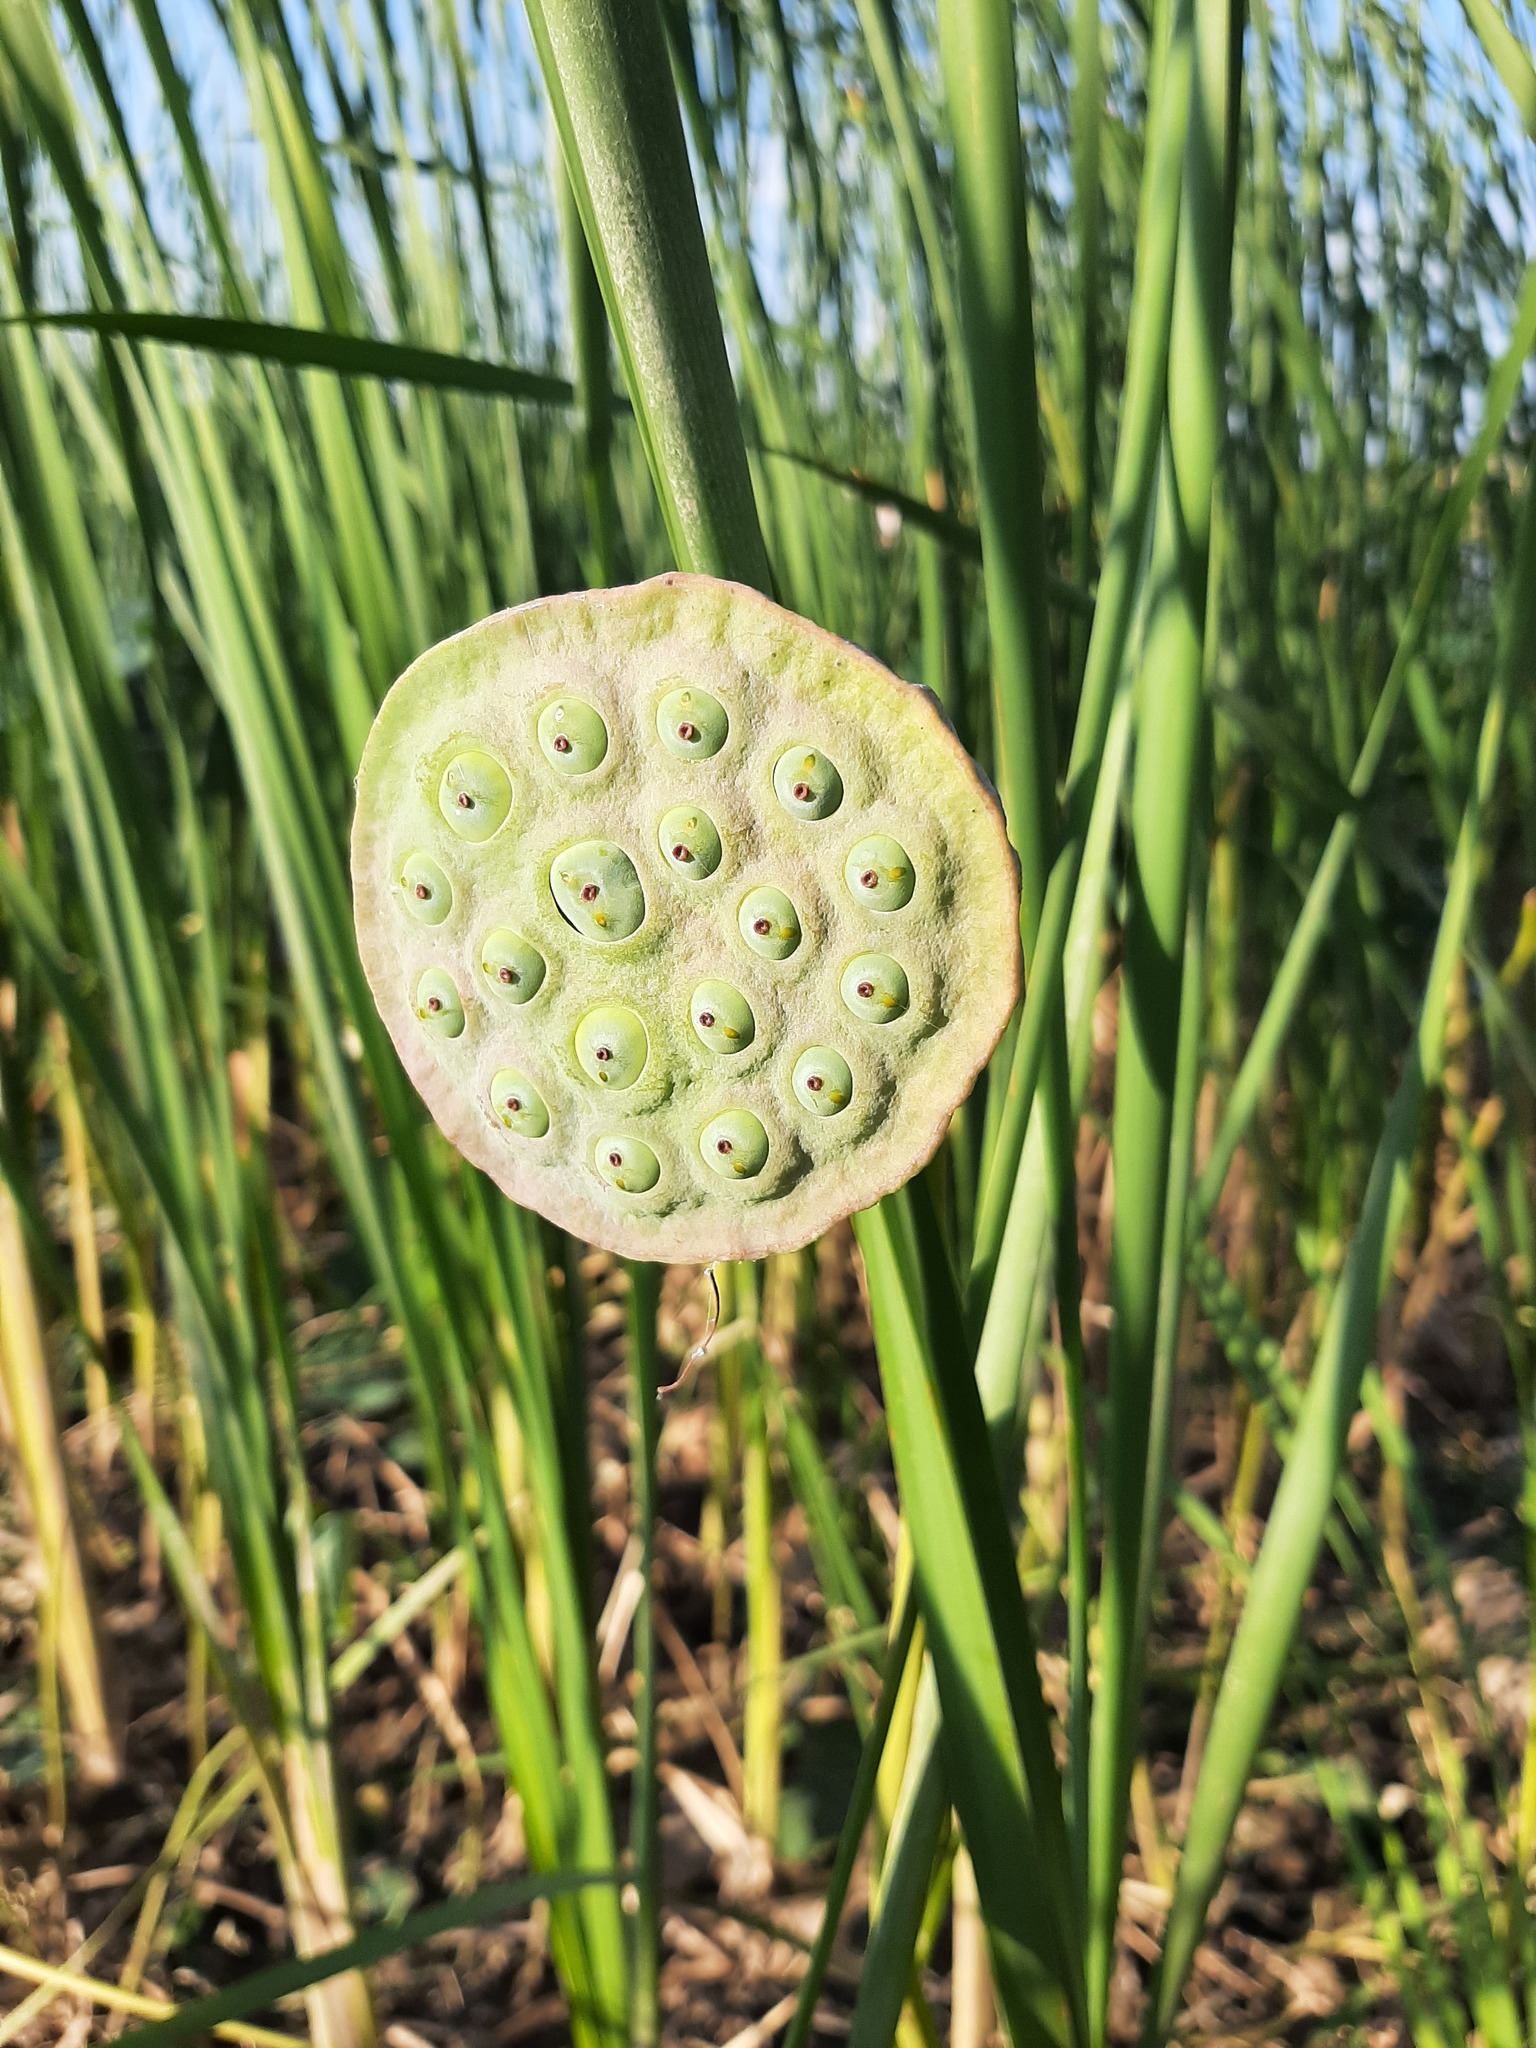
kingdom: Plantae
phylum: Tracheophyta
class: Magnoliopsida
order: Proteales
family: Nelumbonaceae
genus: Nelumbo
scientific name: Nelumbo nucifera
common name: Sacred lotus
